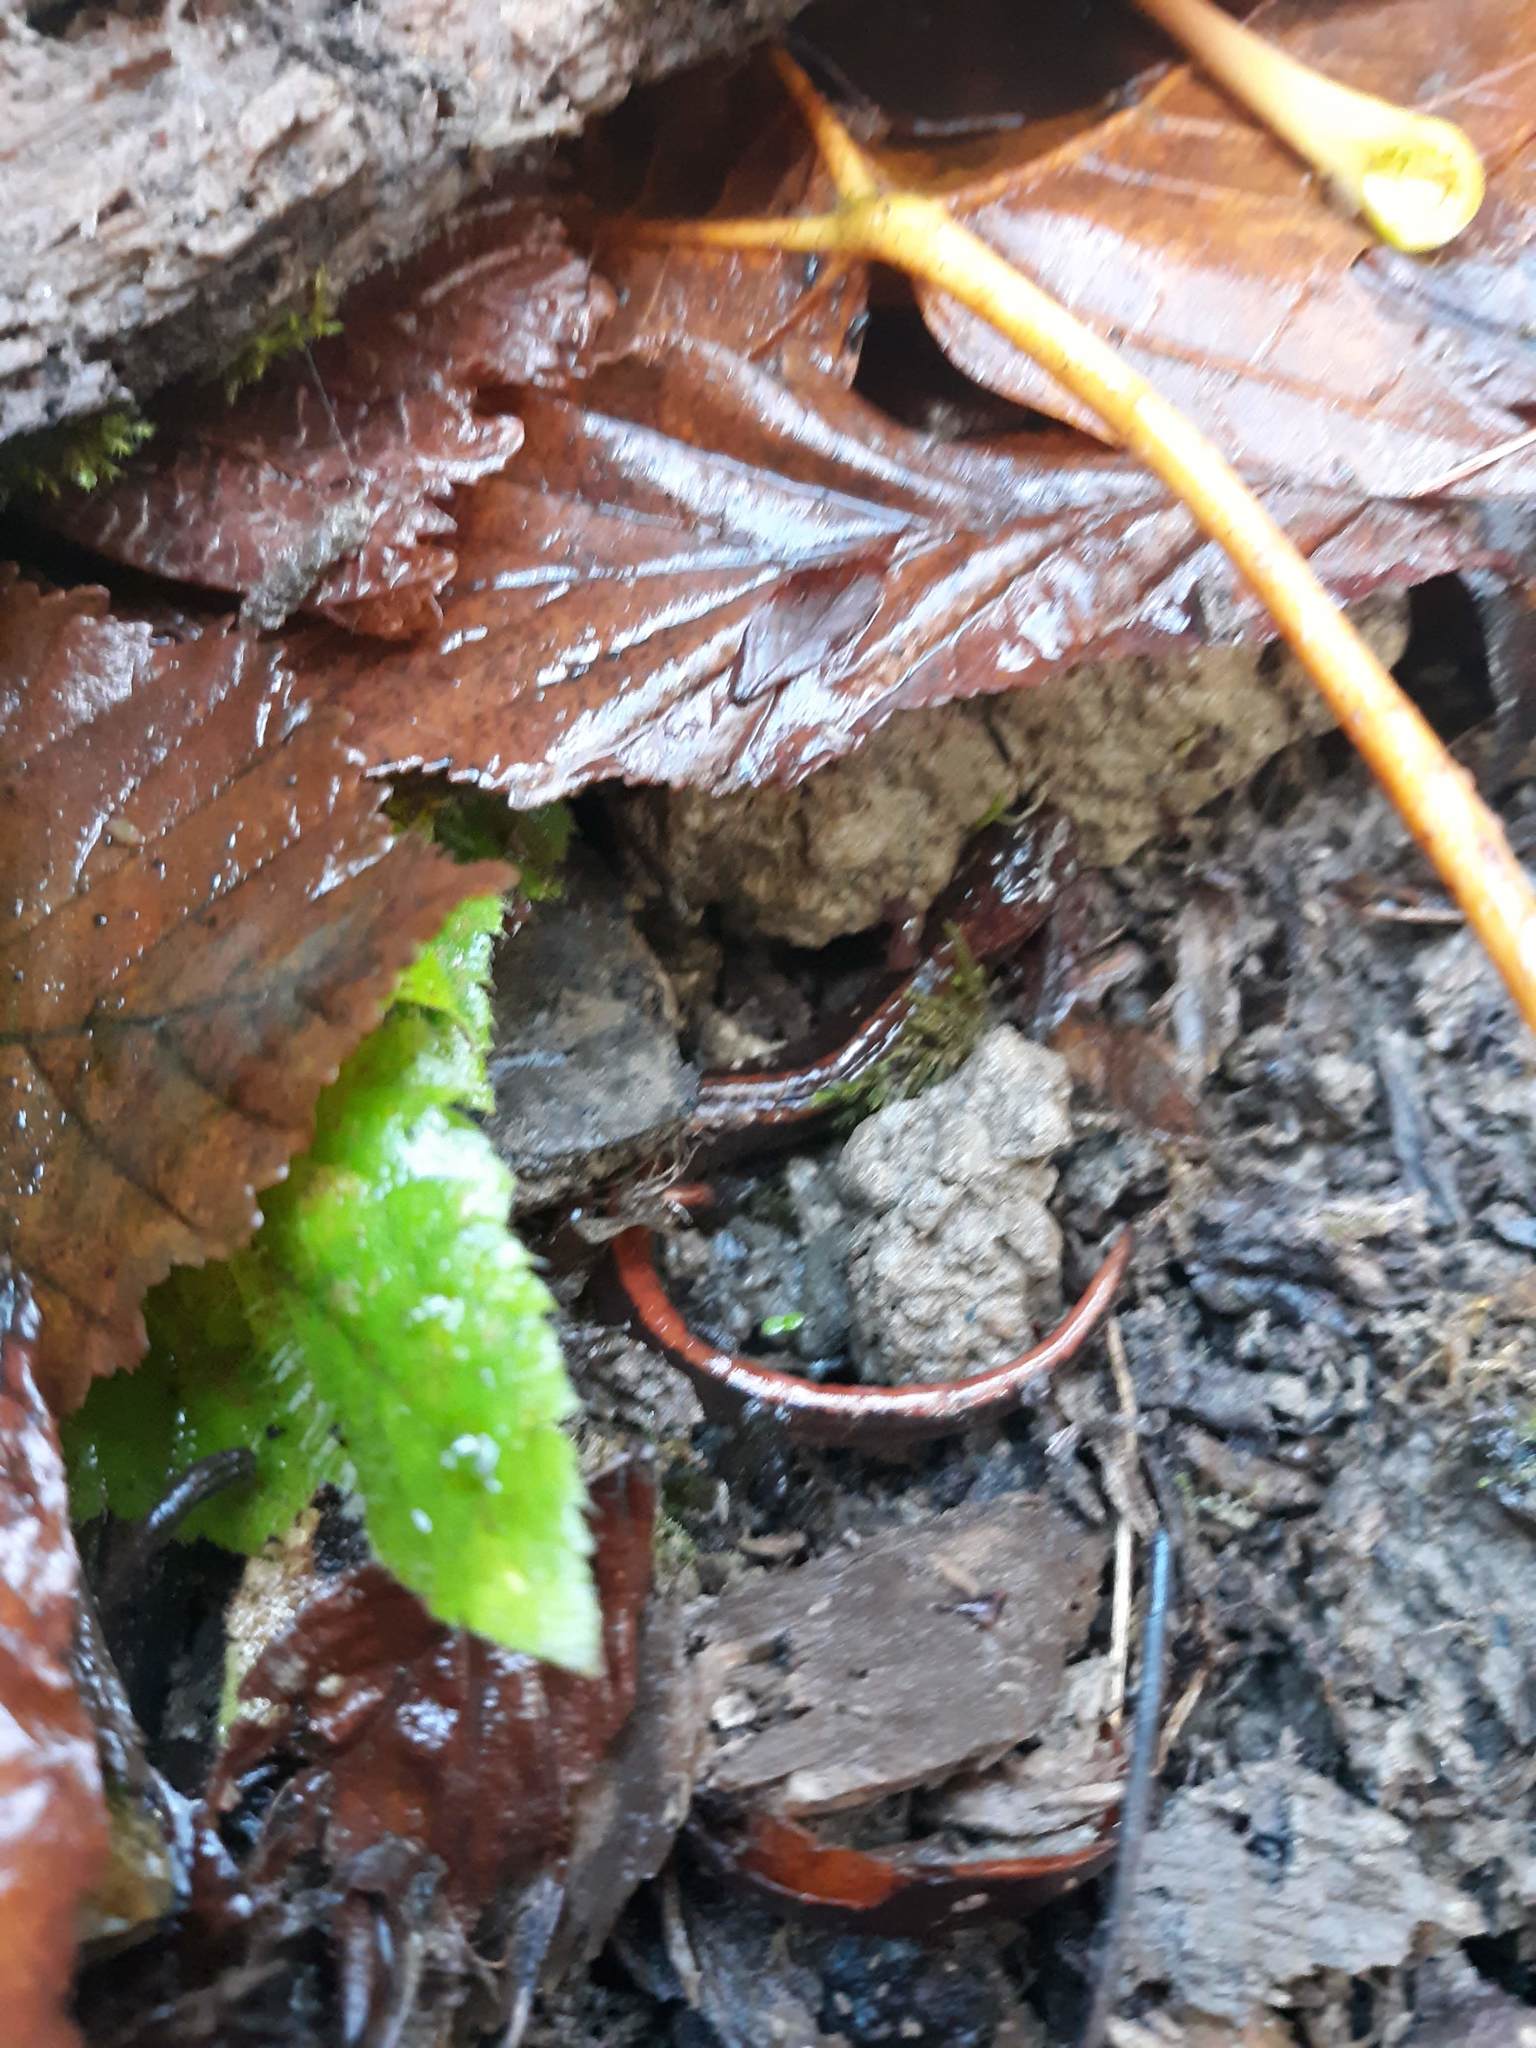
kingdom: Animalia
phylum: Chordata
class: Amphibia
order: Caudata
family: Plethodontidae
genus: Plethodon
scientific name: Plethodon vehiculum
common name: Western red-backed salamander
